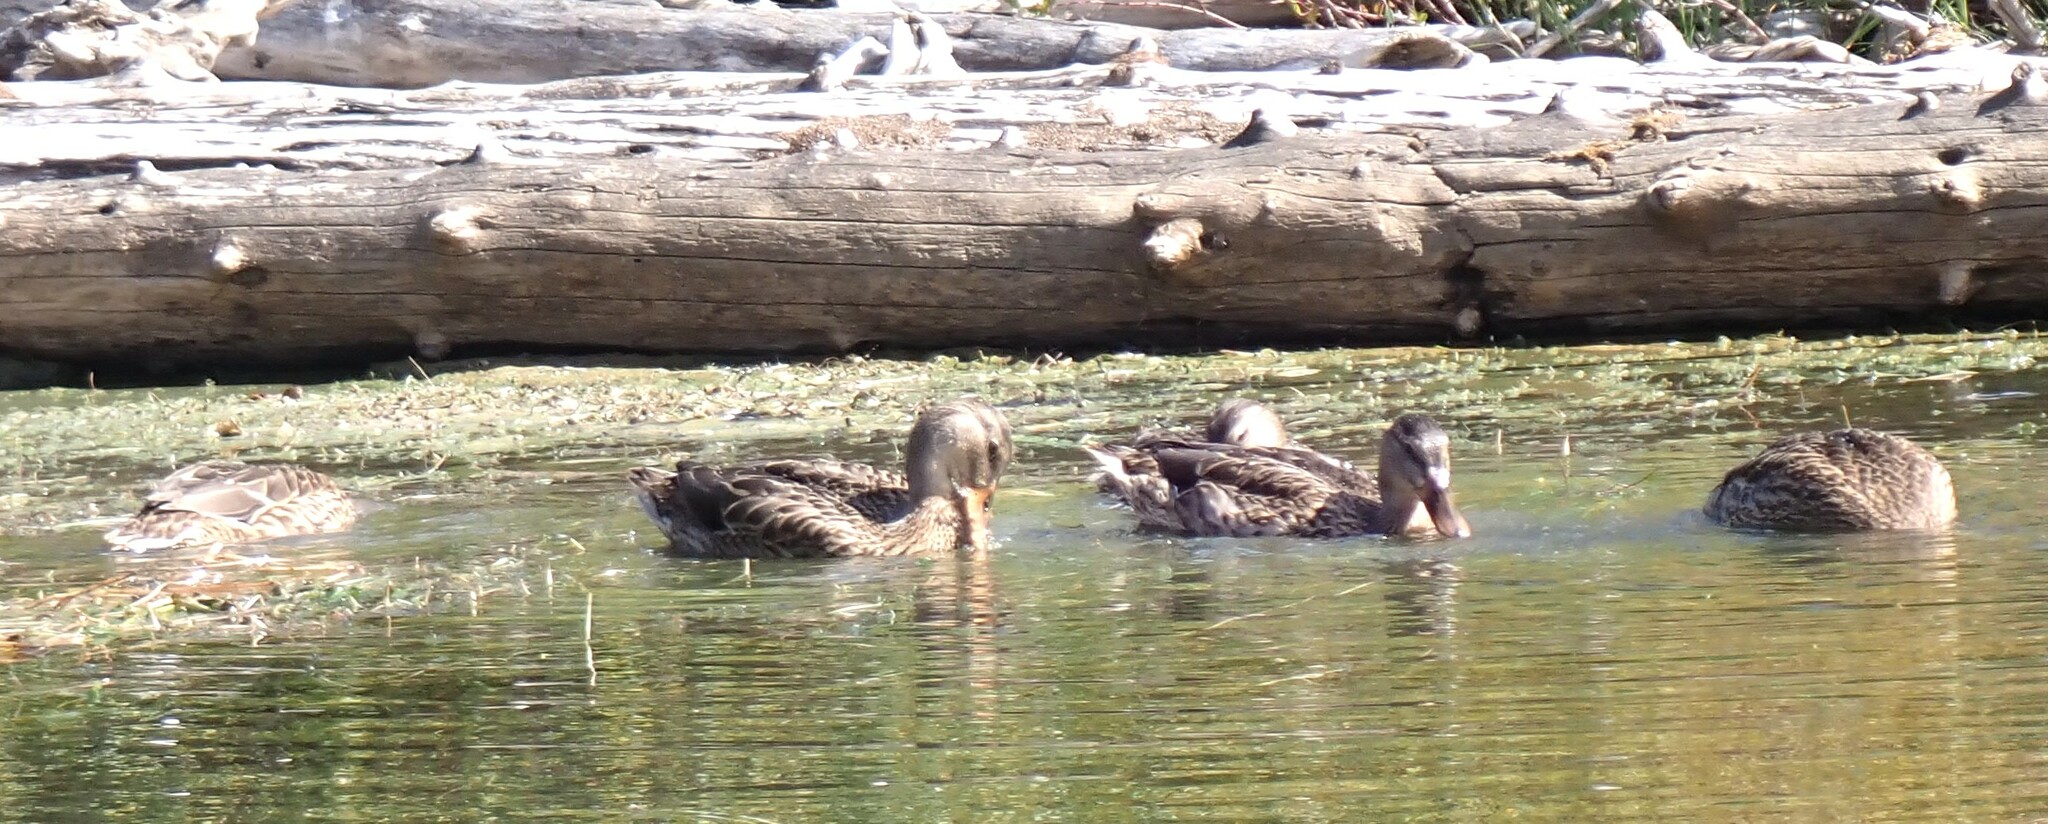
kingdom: Animalia
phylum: Chordata
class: Aves
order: Anseriformes
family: Anatidae
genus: Anas
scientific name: Anas platyrhynchos
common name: Mallard
